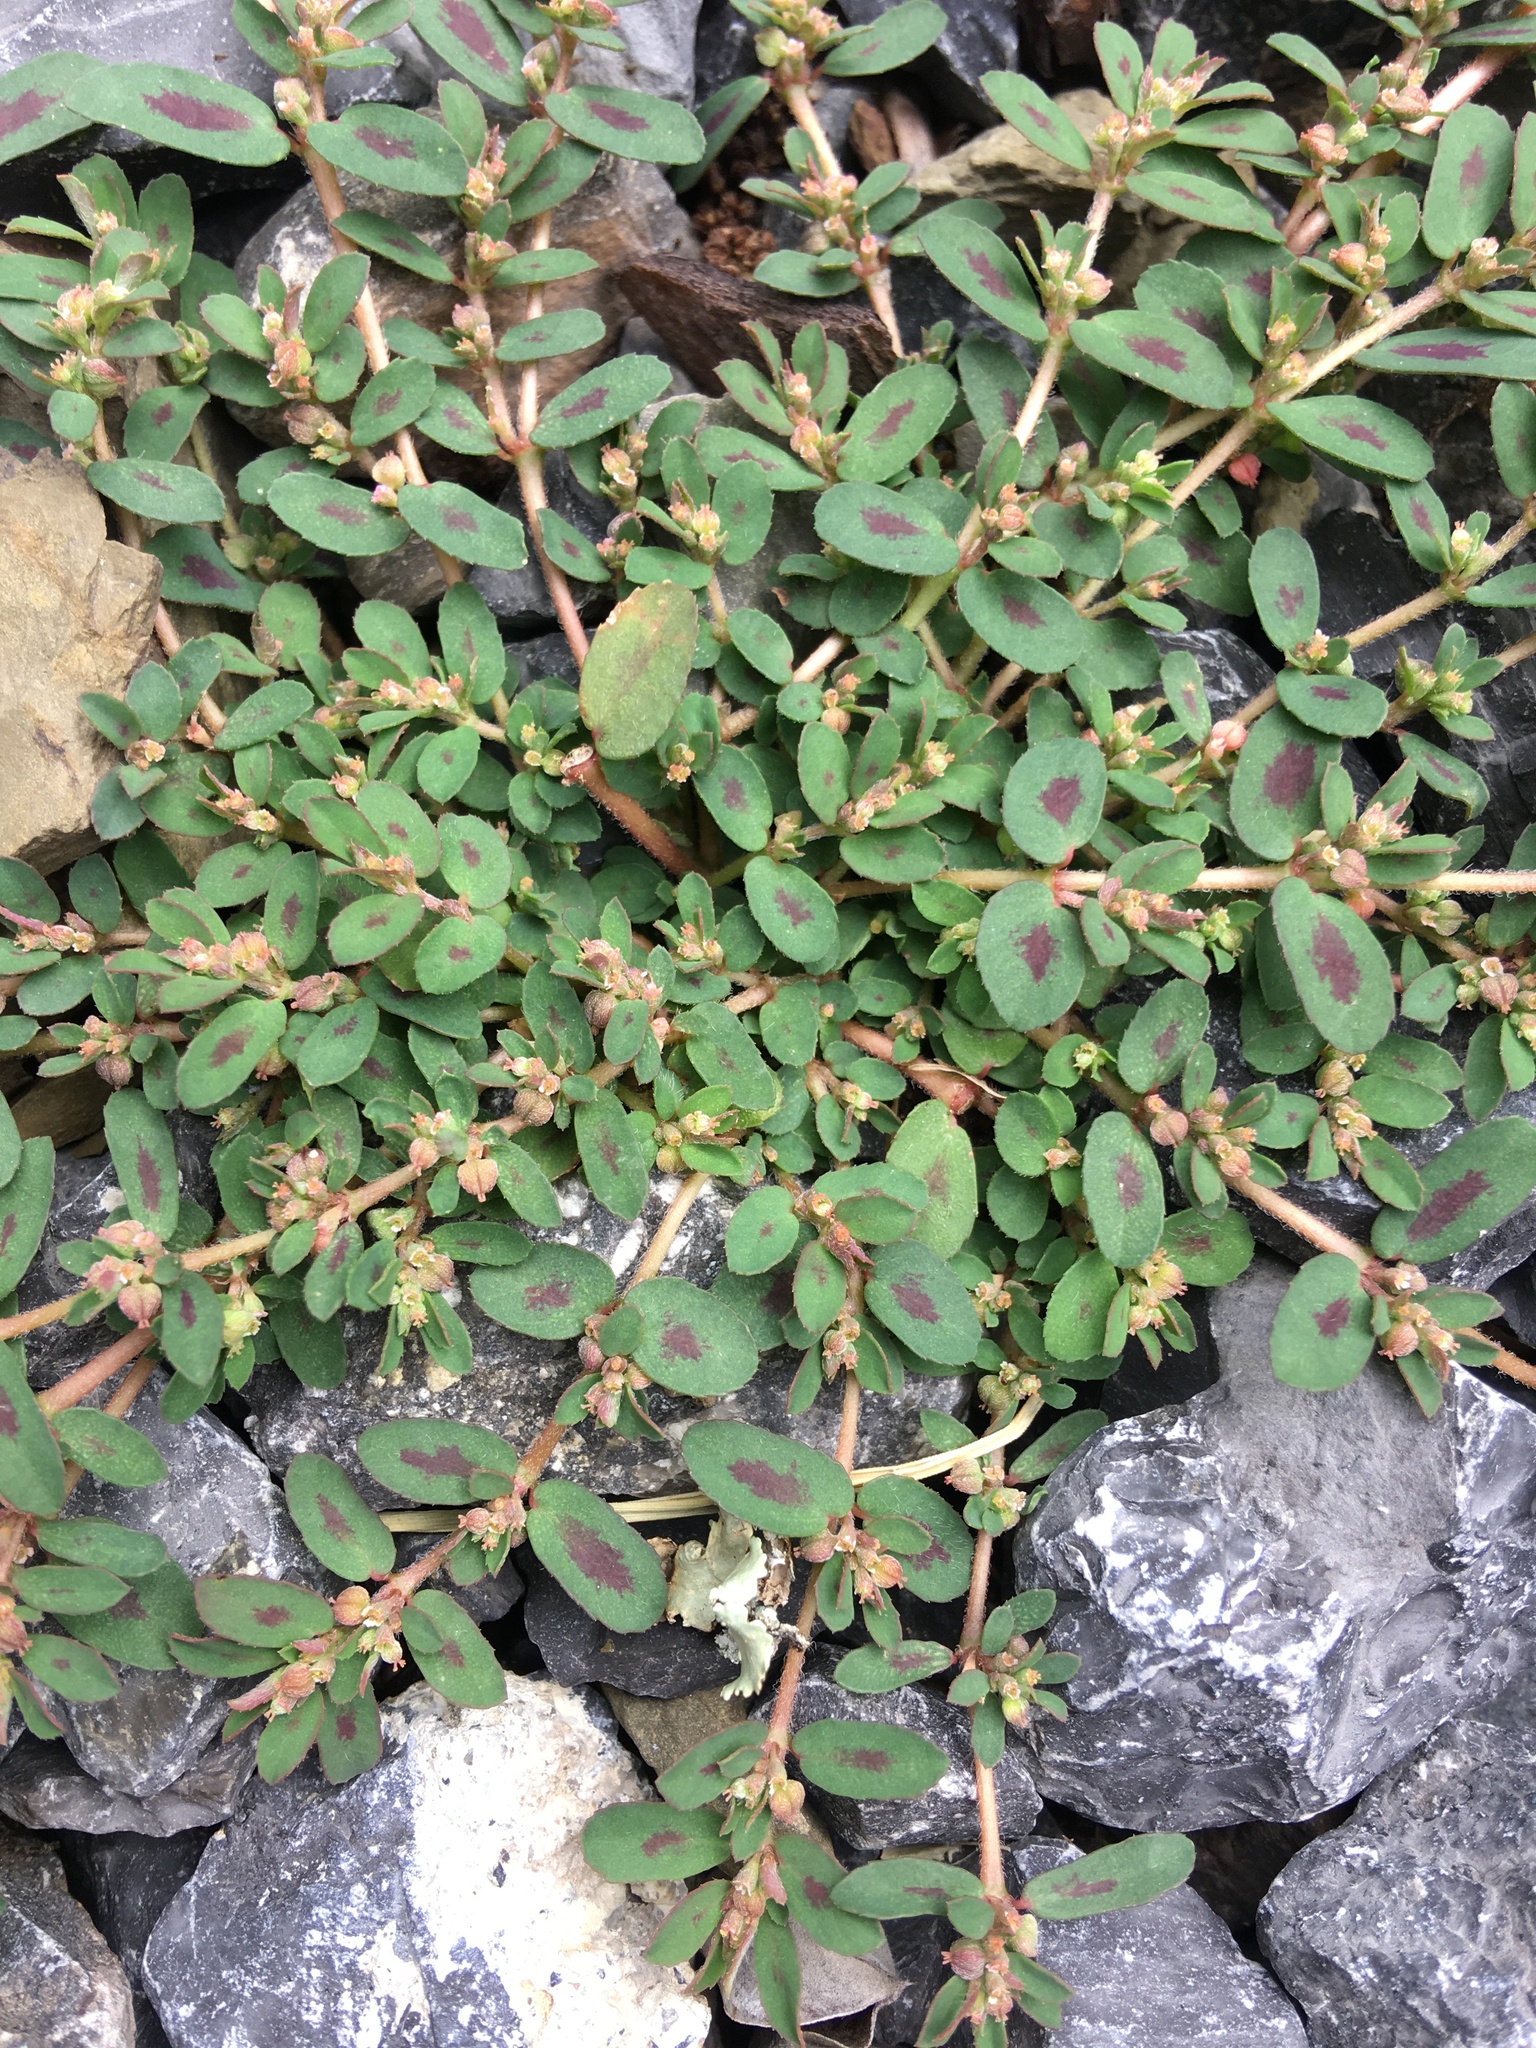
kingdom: Plantae
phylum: Tracheophyta
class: Magnoliopsida
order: Malpighiales
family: Euphorbiaceae
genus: Euphorbia
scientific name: Euphorbia maculata
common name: Spotted spurge
